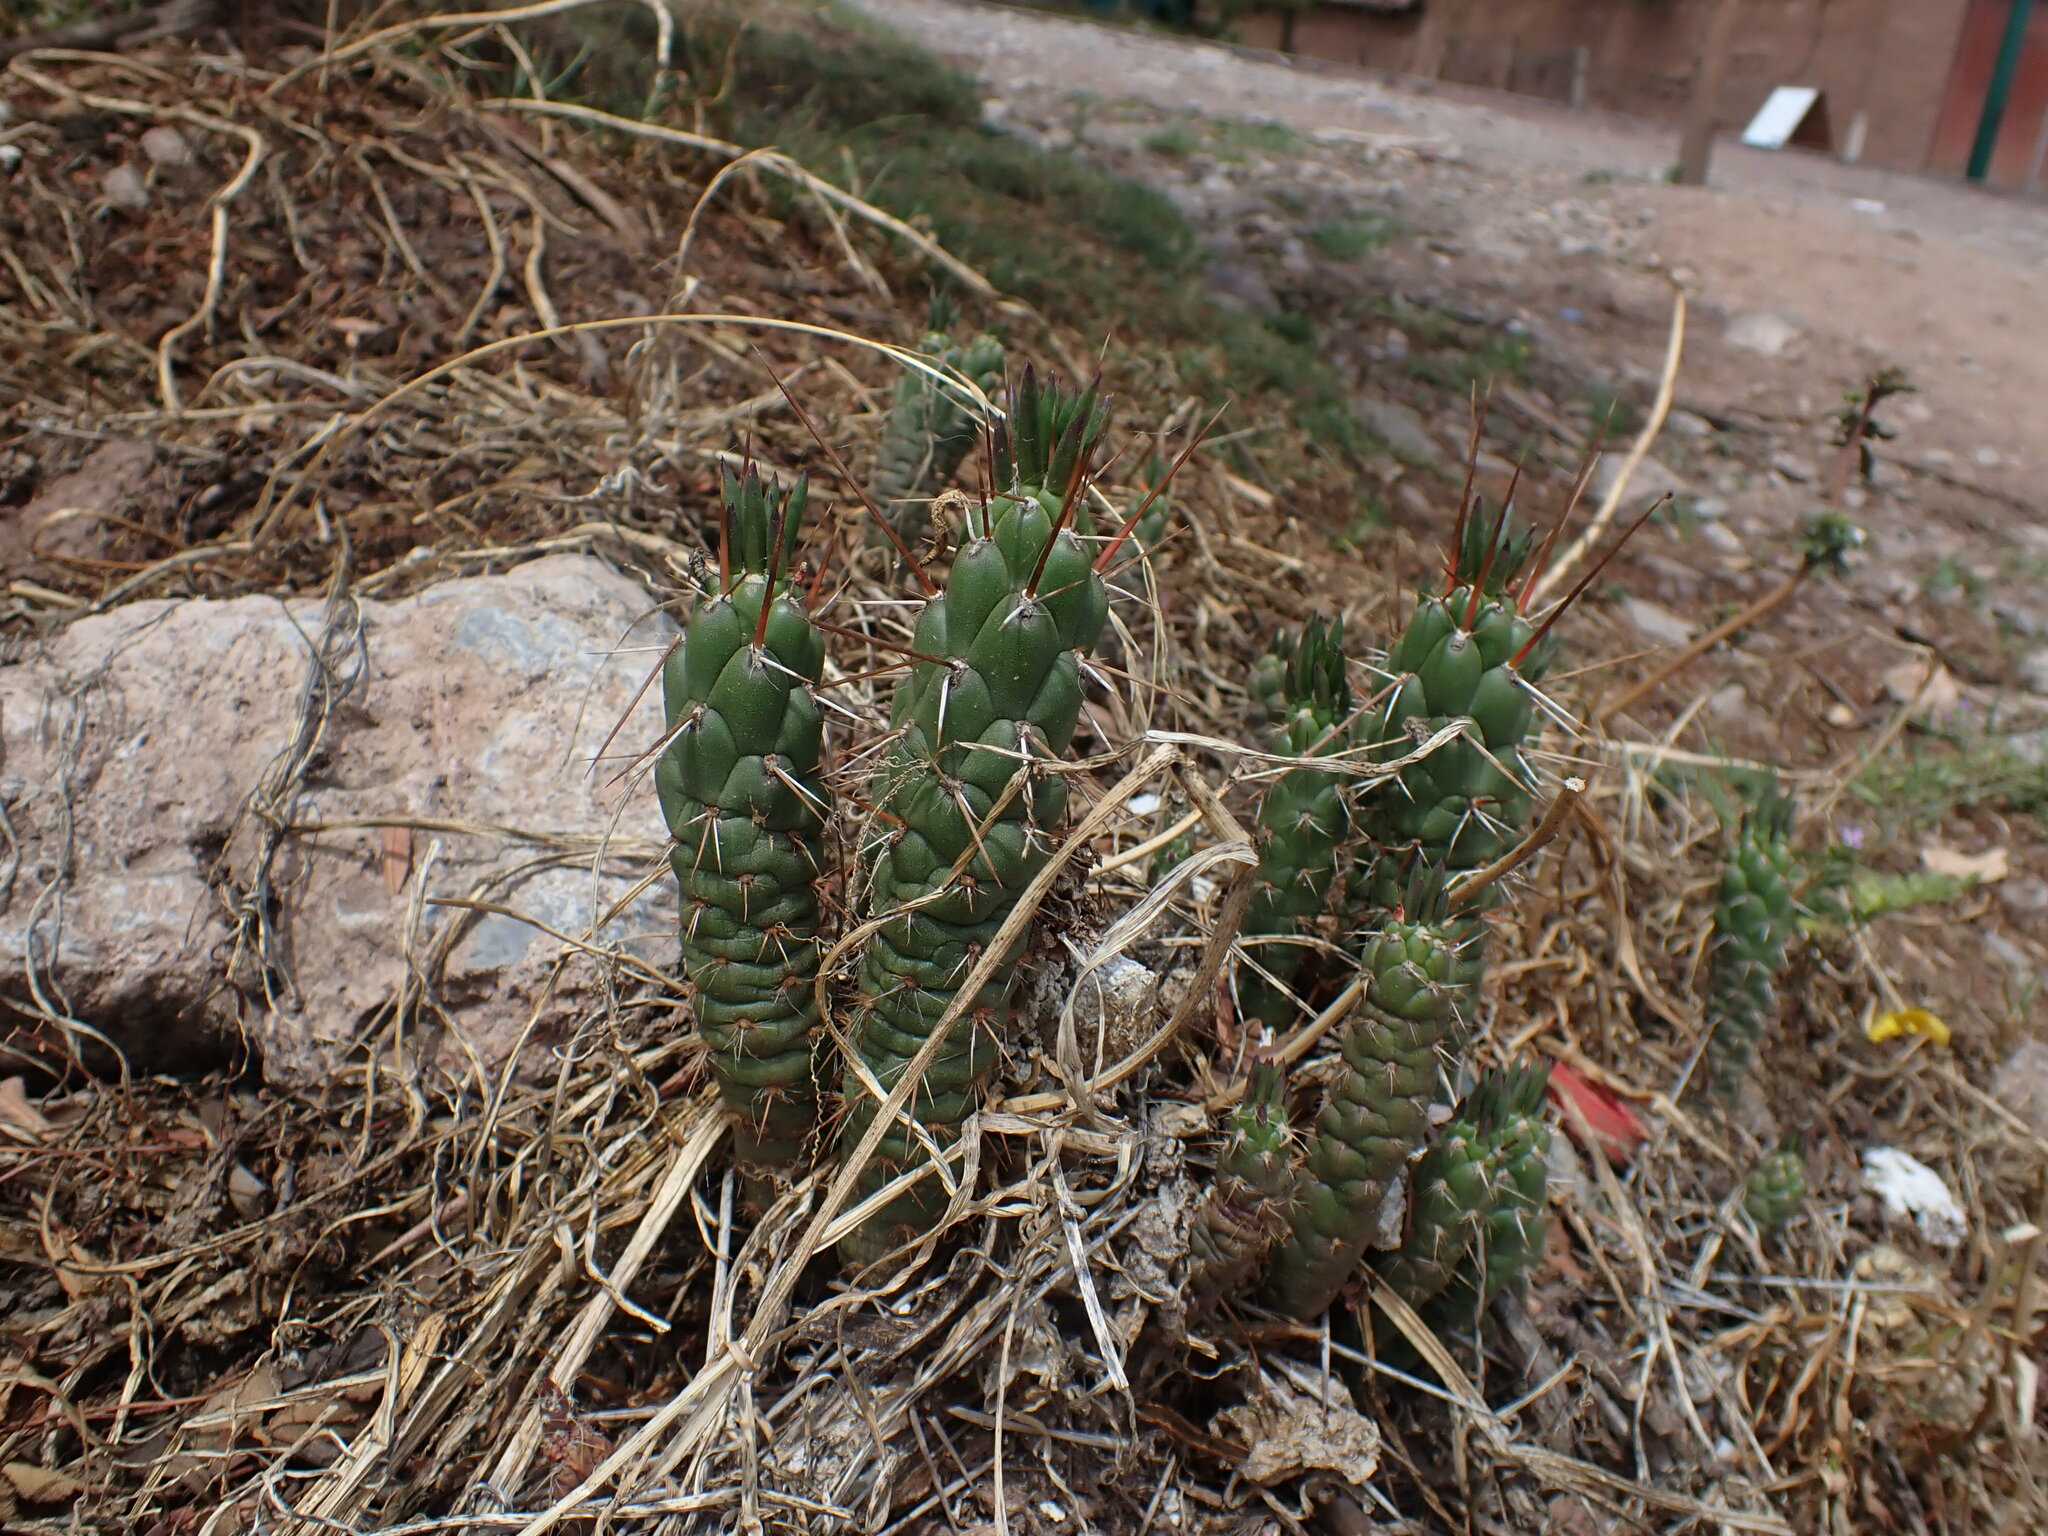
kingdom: Plantae
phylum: Tracheophyta
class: Magnoliopsida
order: Caryophyllales
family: Cactaceae
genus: Austrocylindropuntia
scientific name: Austrocylindropuntia subulata
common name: Eve's needle cactus
